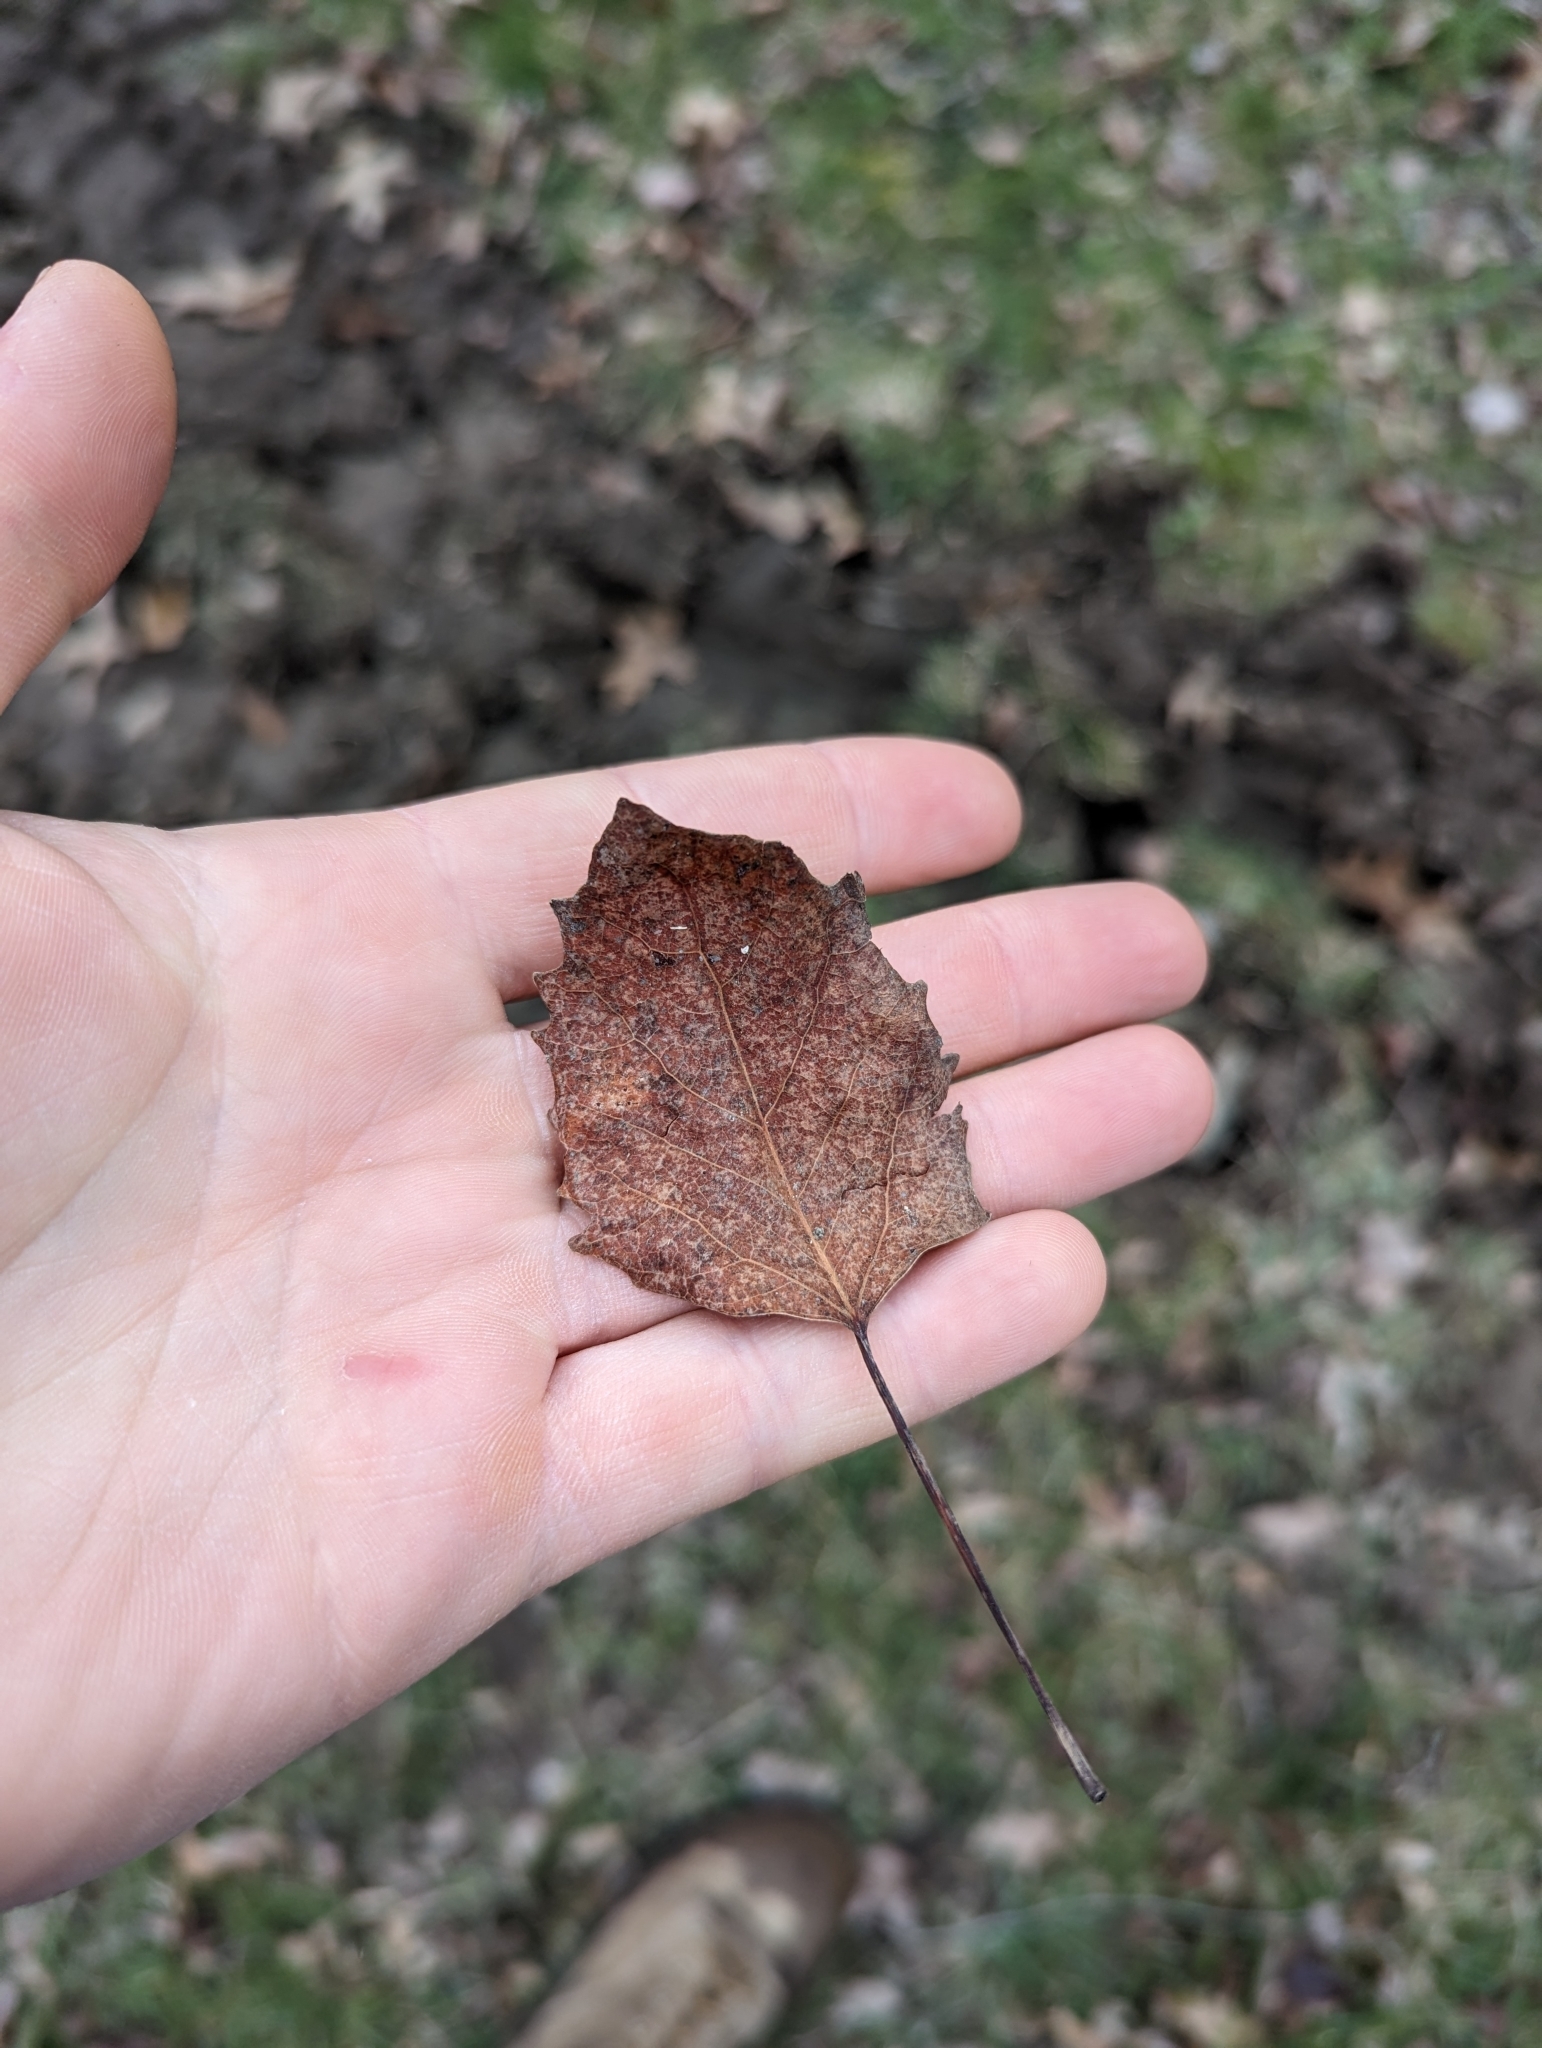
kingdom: Plantae
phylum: Tracheophyta
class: Magnoliopsida
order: Malpighiales
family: Salicaceae
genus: Populus
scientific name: Populus grandidentata
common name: Bigtooth aspen
